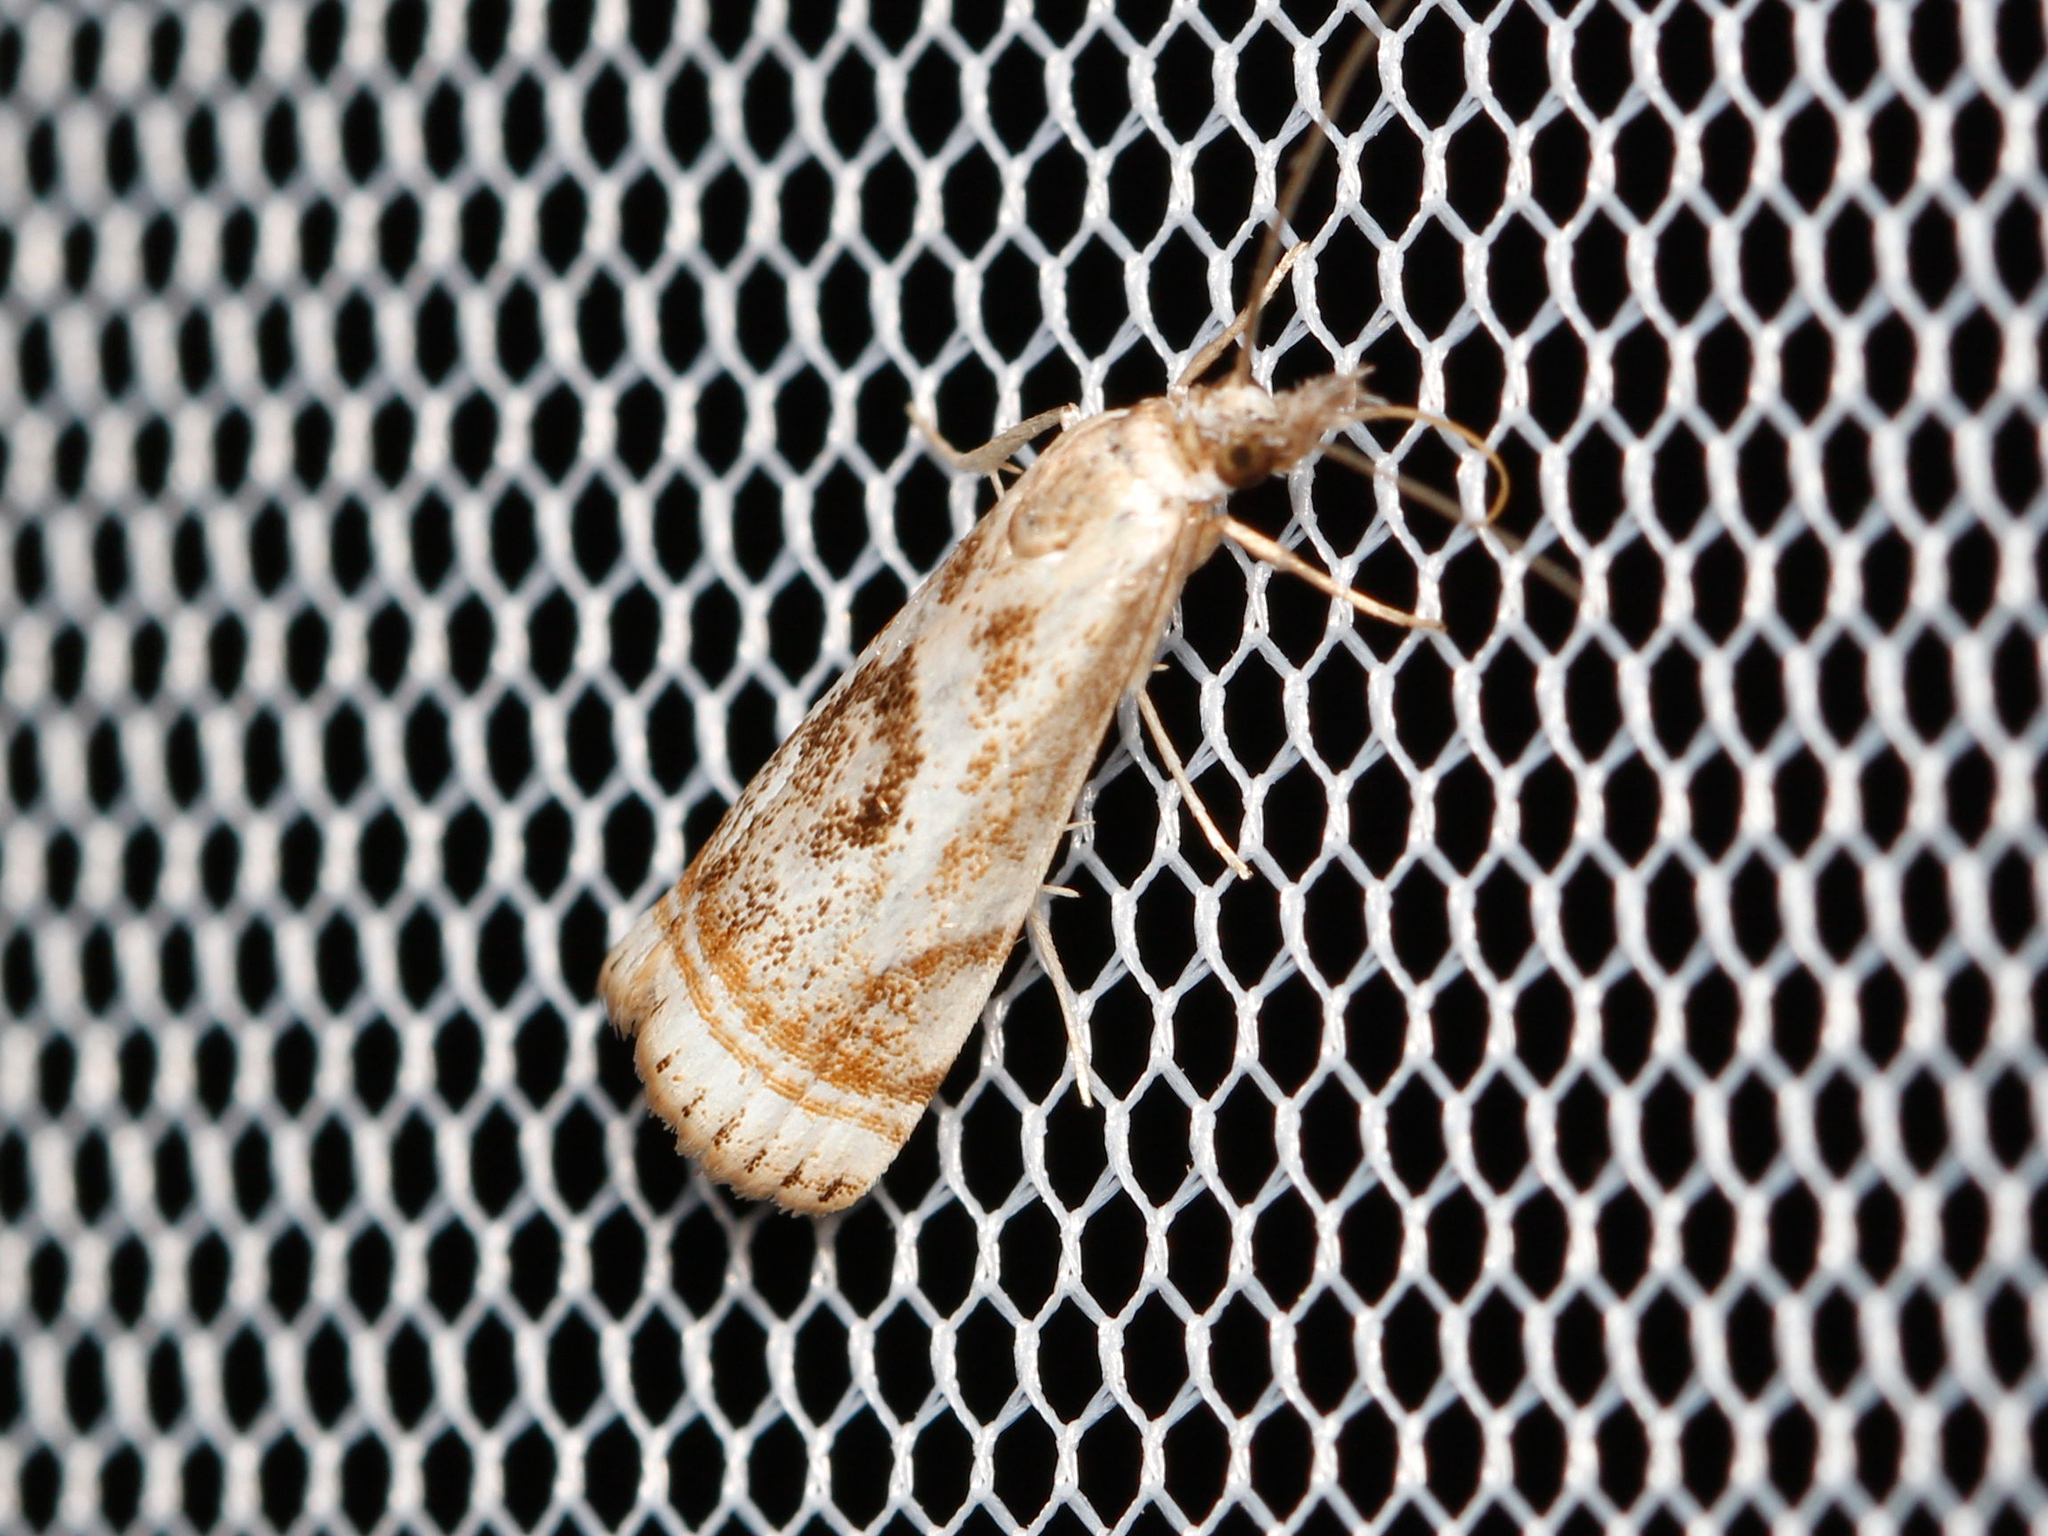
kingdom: Animalia
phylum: Arthropoda
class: Insecta
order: Lepidoptera
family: Crambidae
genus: Microcrambus
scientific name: Microcrambus elegans
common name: Elegant grass-veneer
